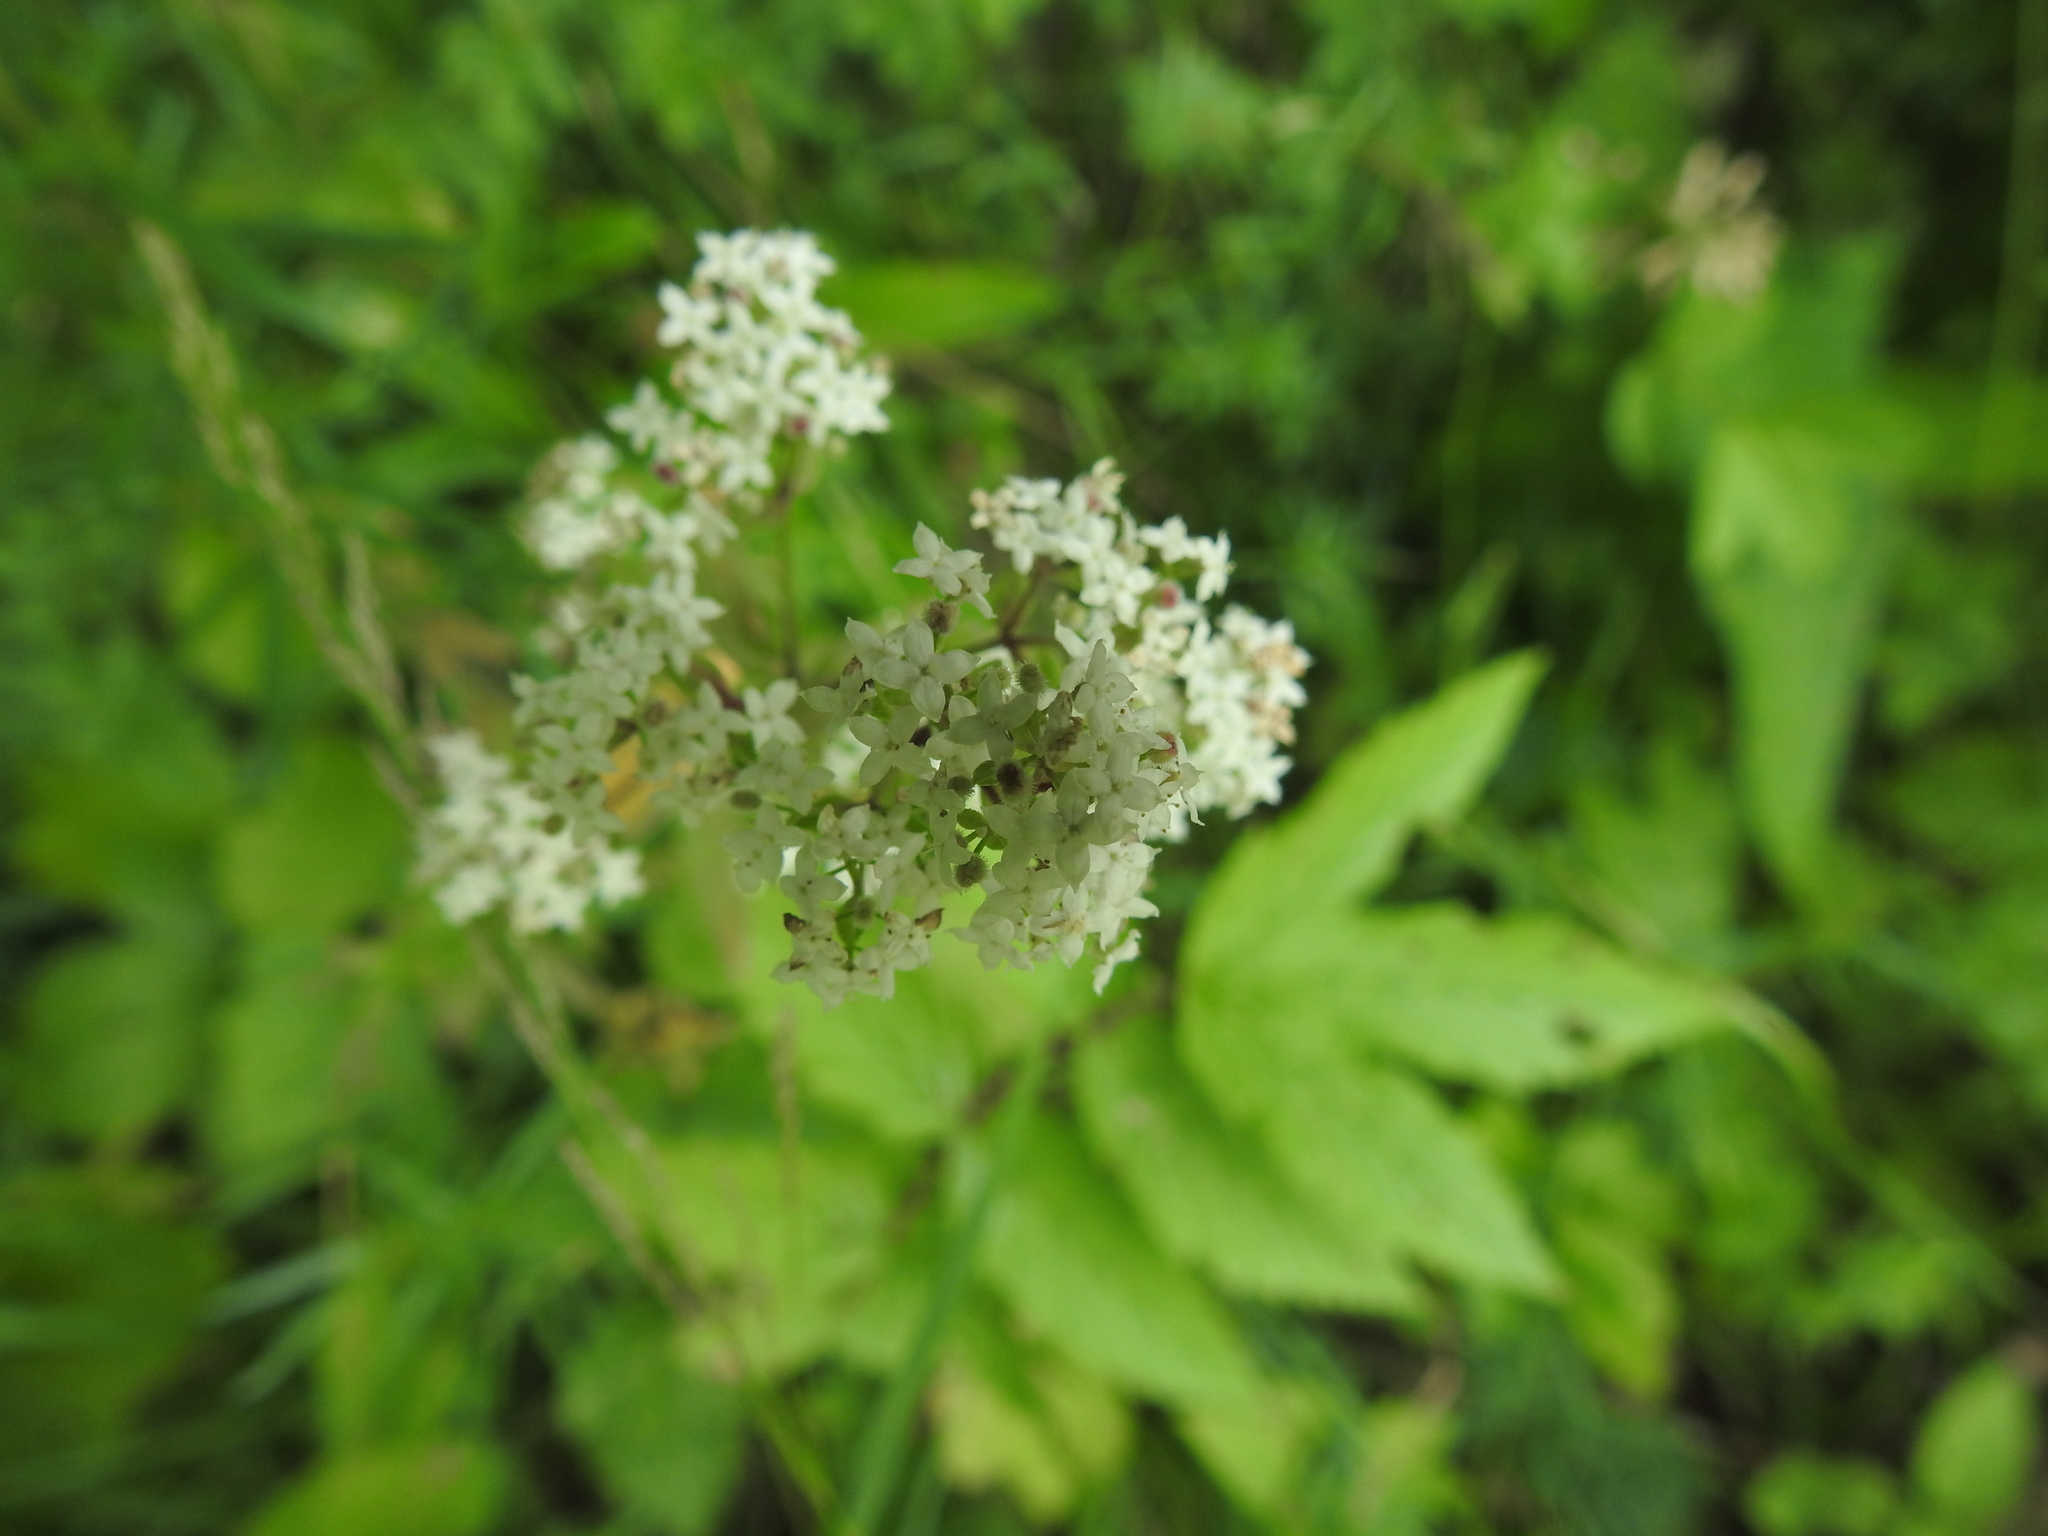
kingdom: Plantae
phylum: Tracheophyta
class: Magnoliopsida
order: Gentianales
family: Rubiaceae
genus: Galium
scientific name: Galium boreale
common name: Northern bedstraw
